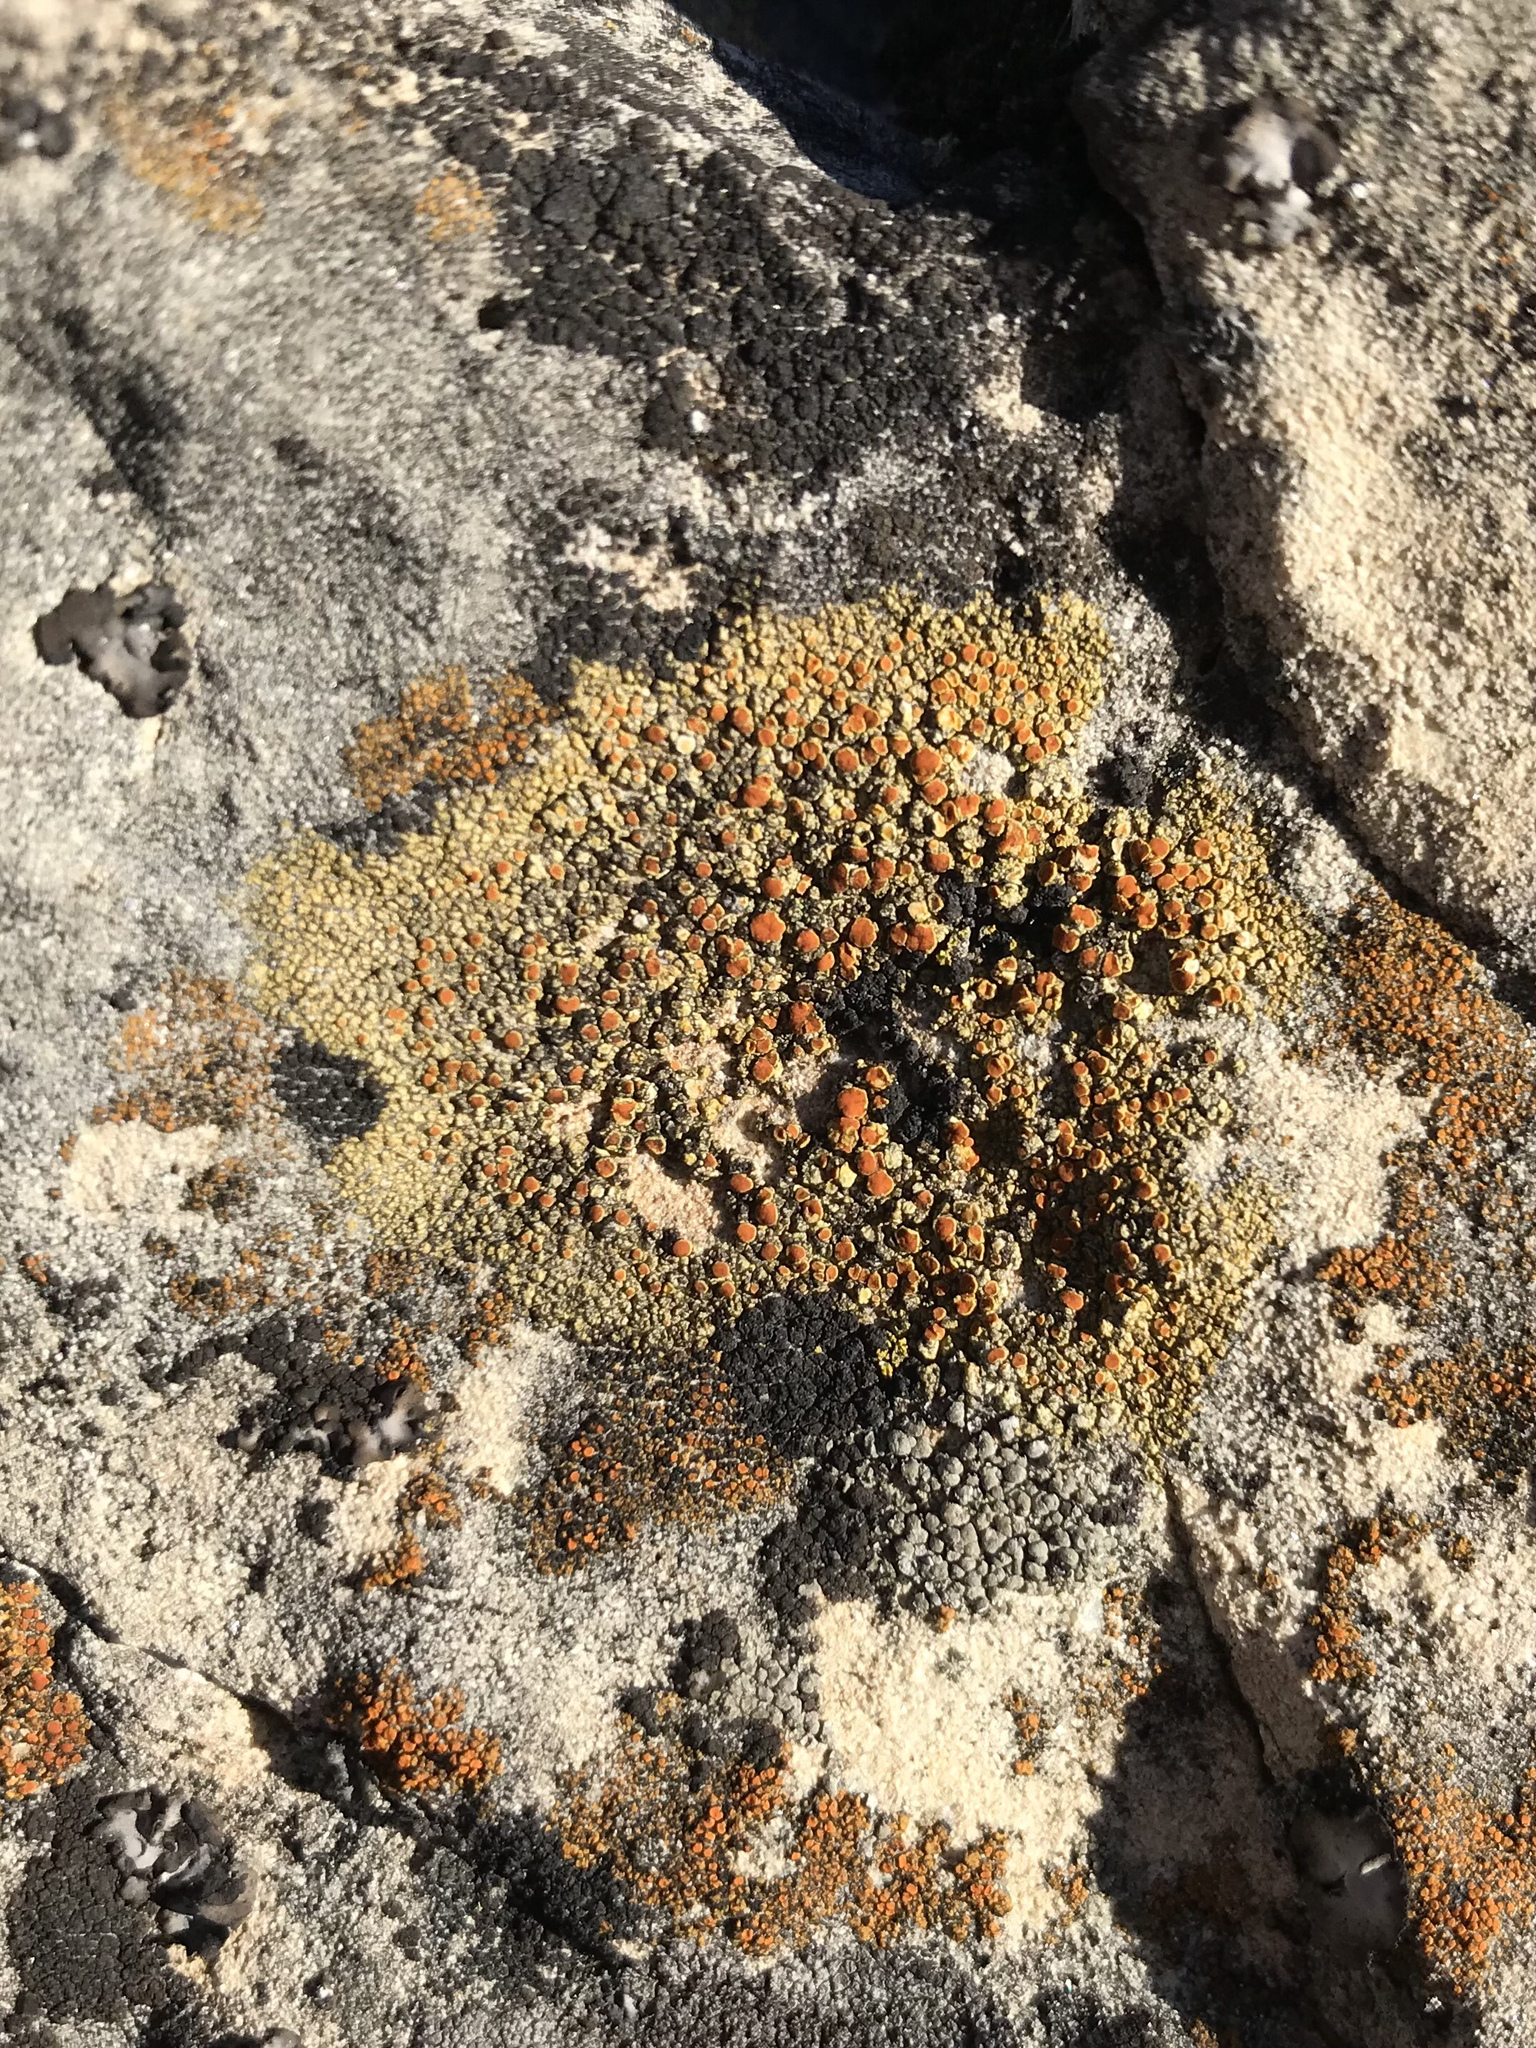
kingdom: Fungi
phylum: Ascomycota
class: Lecanoromycetes
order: Teloschistales
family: Teloschistaceae
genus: Gyalolechia
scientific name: Gyalolechia flavovirescens
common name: Sulphur firedot
